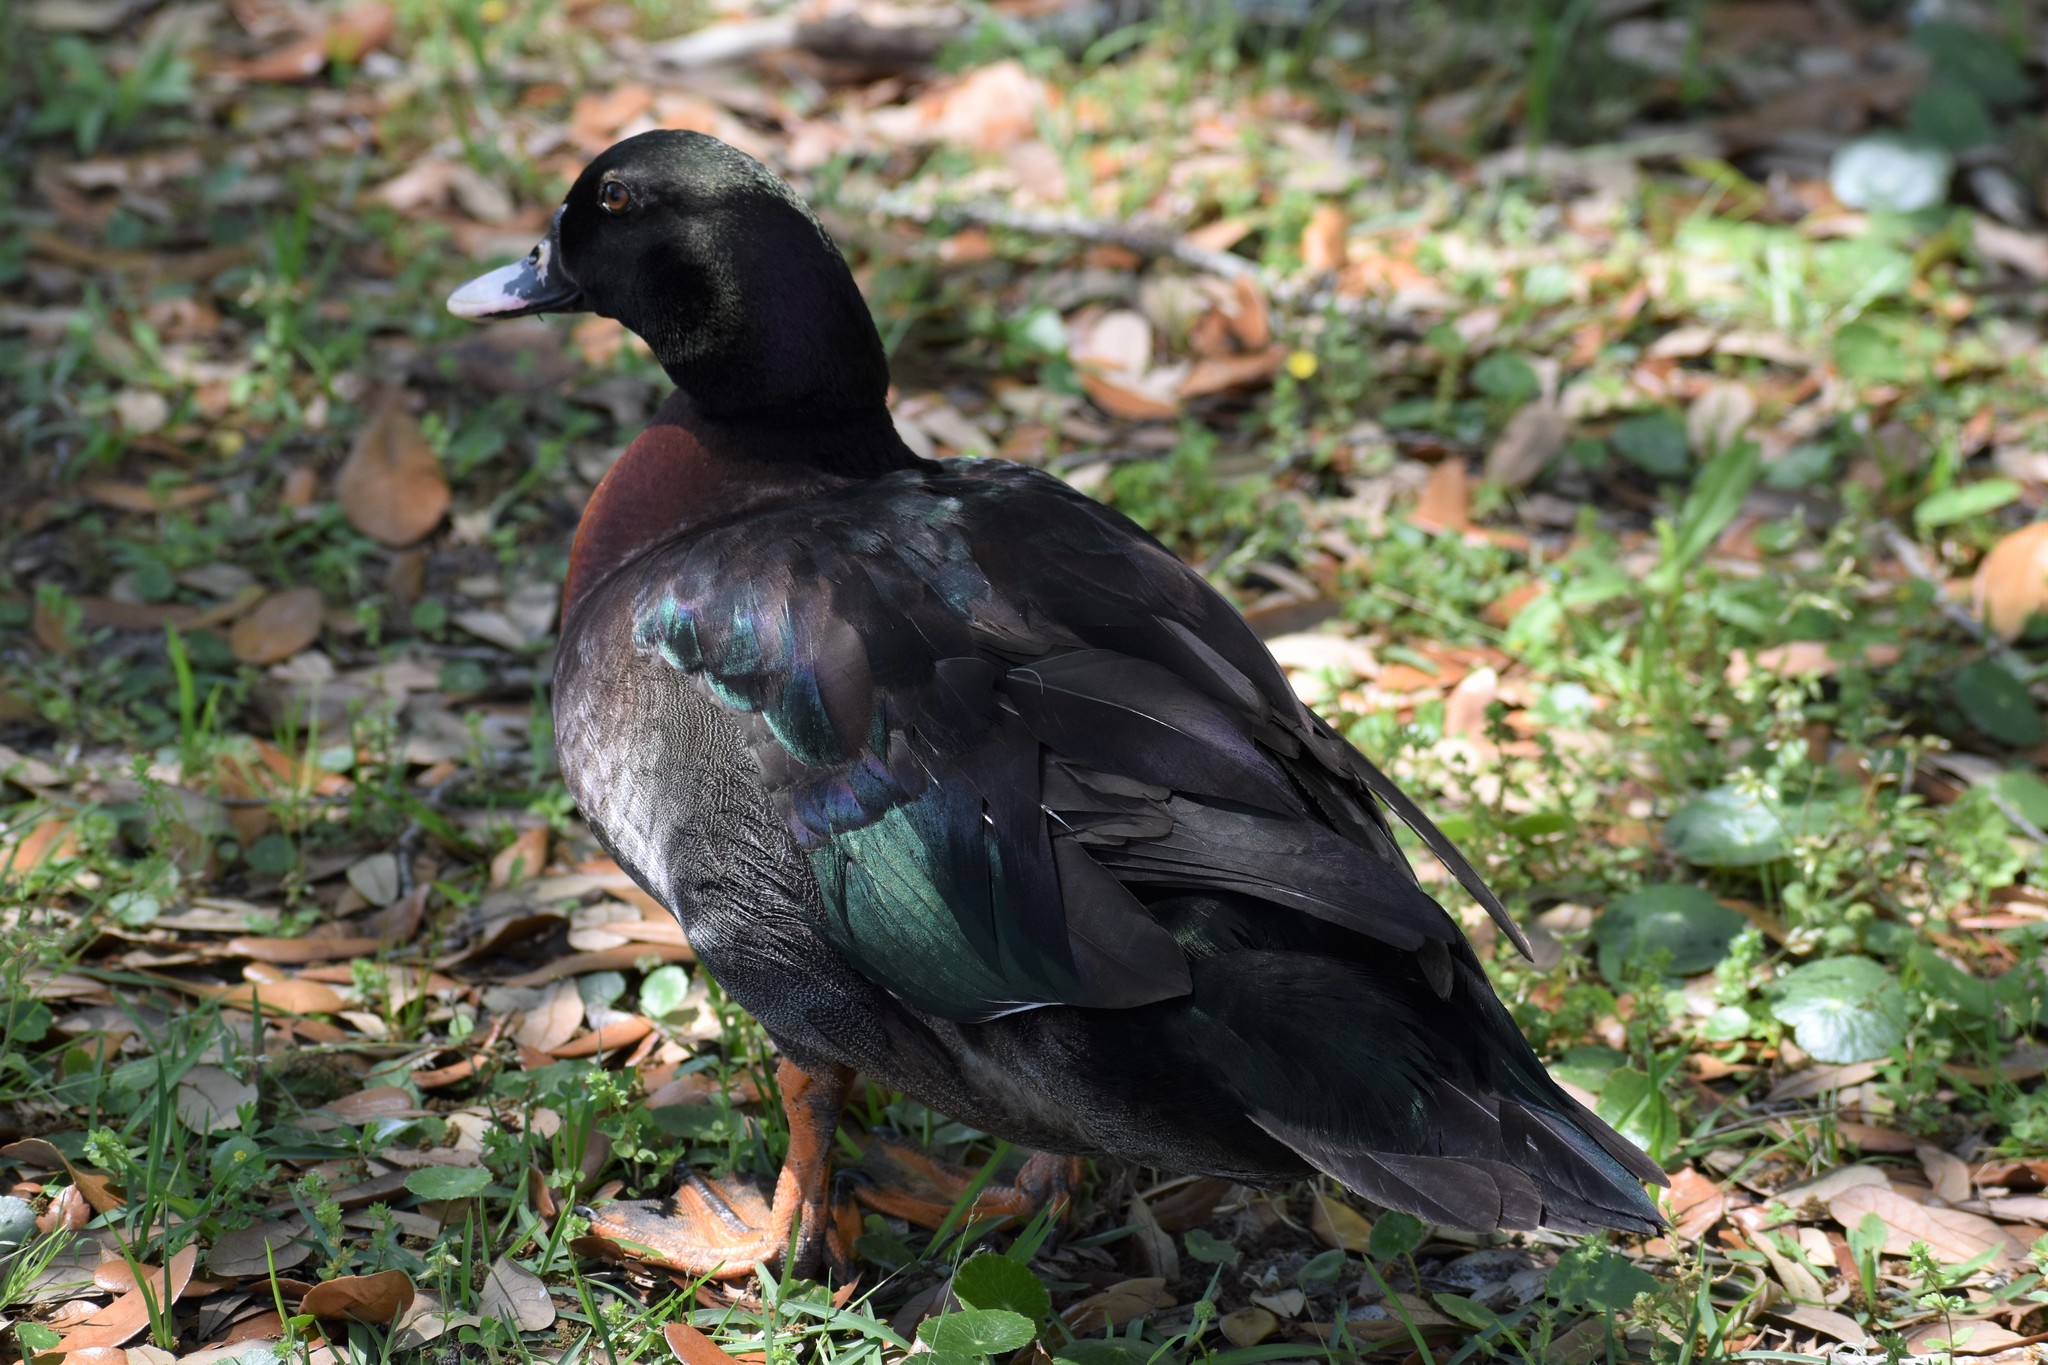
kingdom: Animalia
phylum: Chordata
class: Aves
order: Anseriformes
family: Anatidae
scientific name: Anatidae
